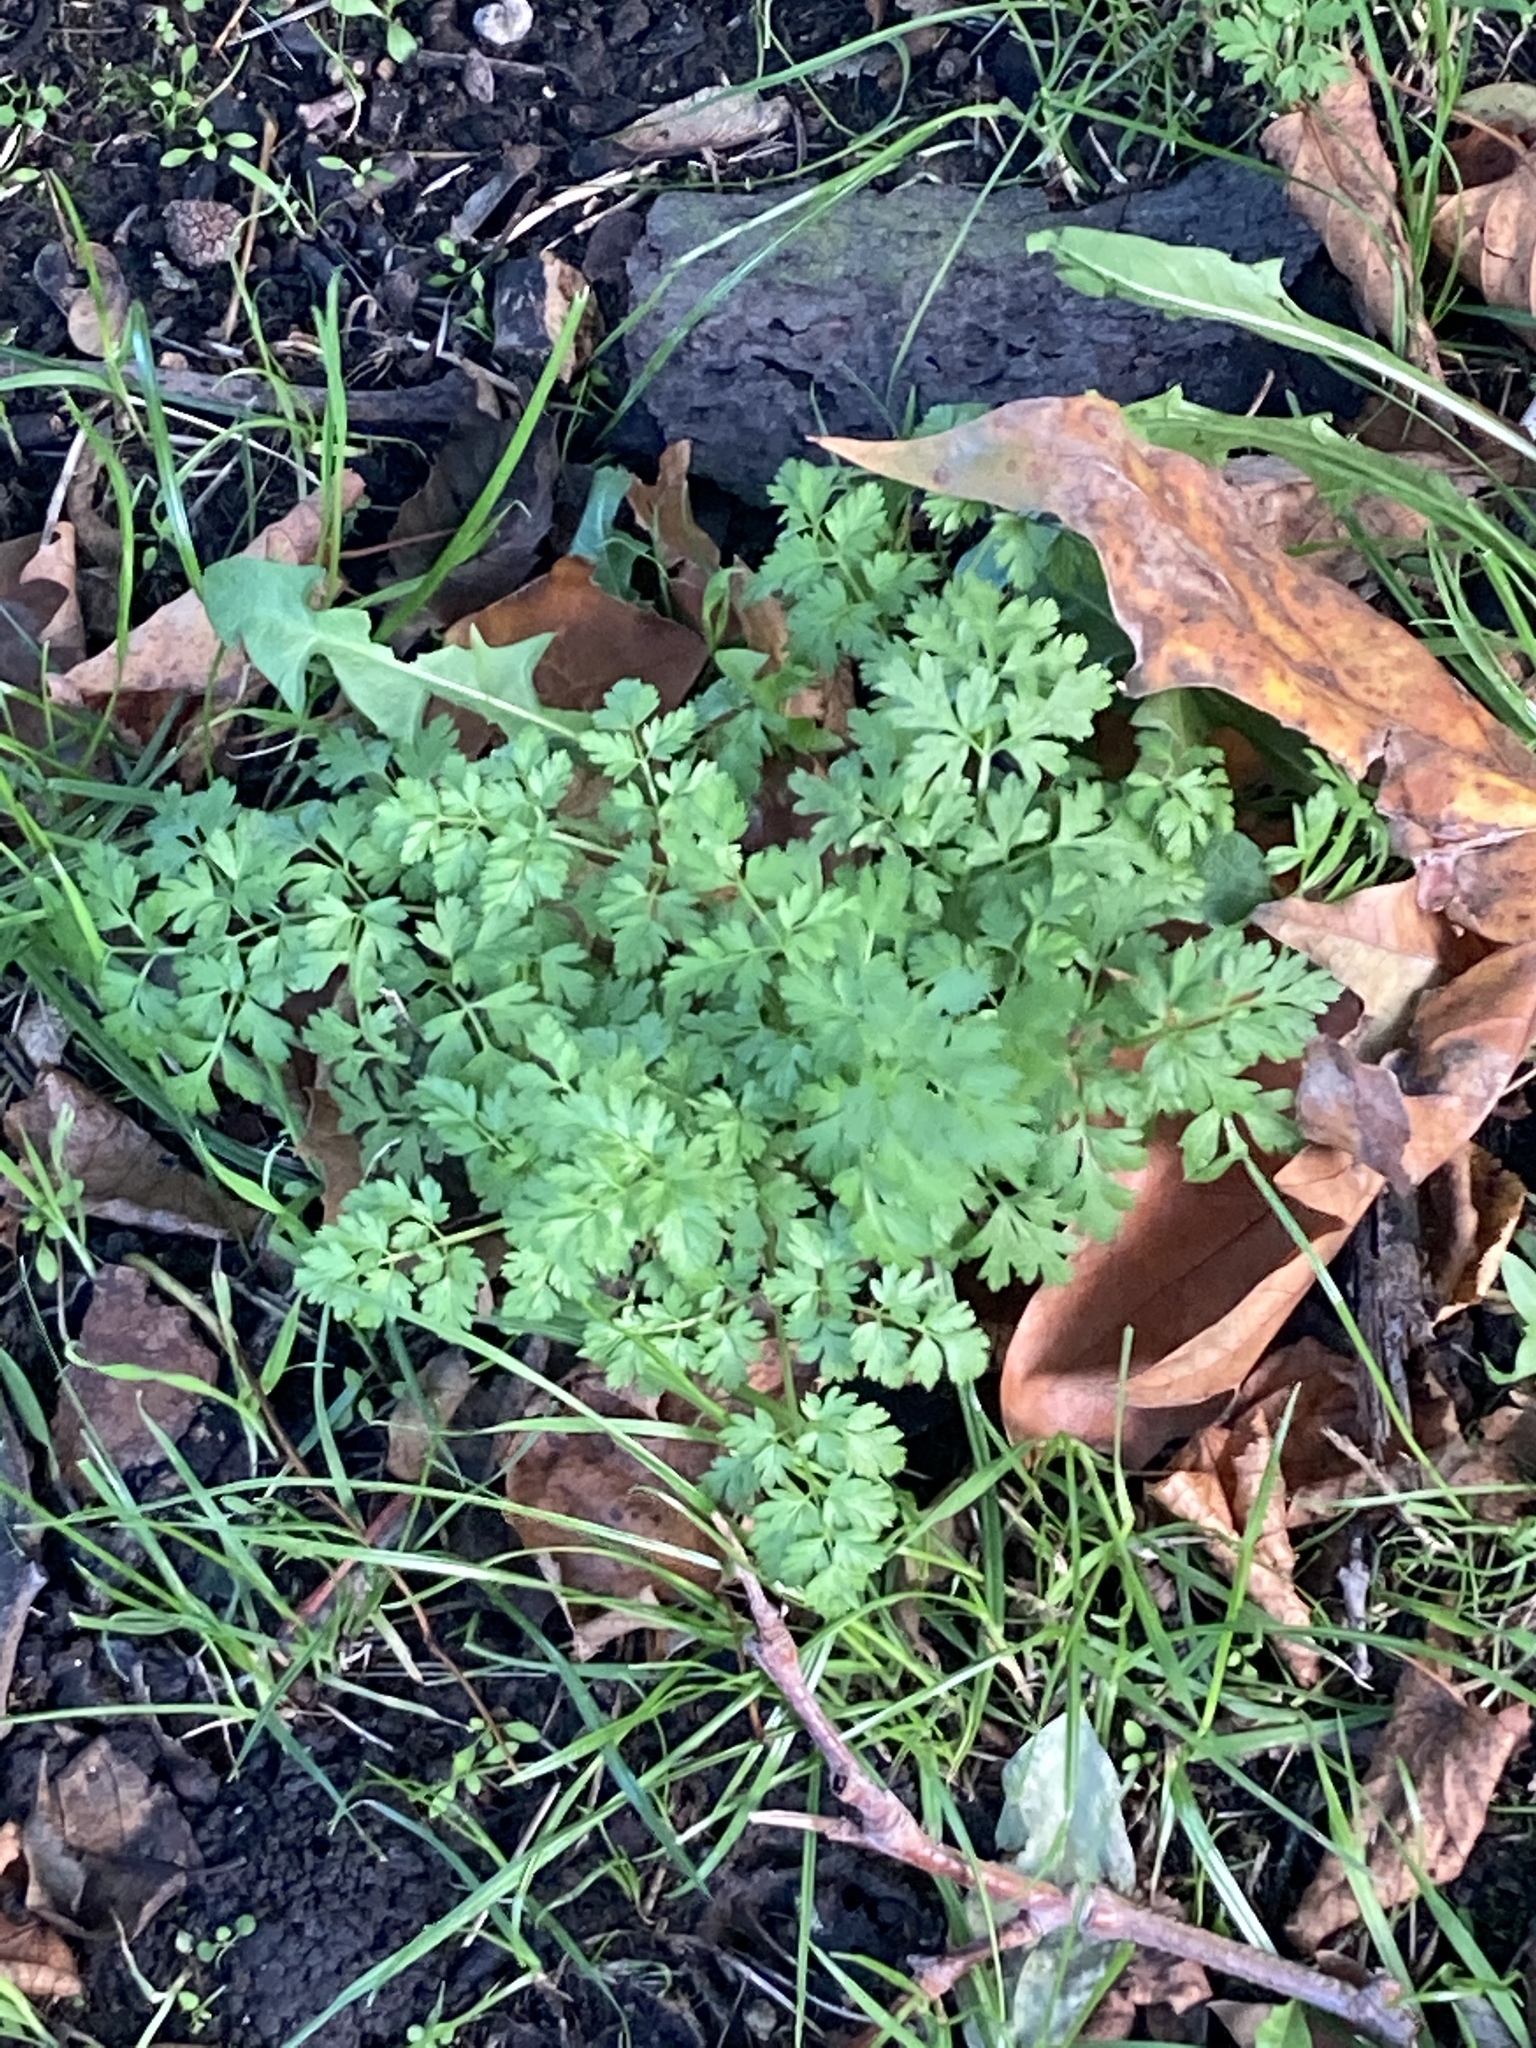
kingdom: Plantae
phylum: Tracheophyta
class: Magnoliopsida
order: Geraniales
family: Geraniaceae
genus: Geranium
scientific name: Geranium robertianum
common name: Herb-robert
